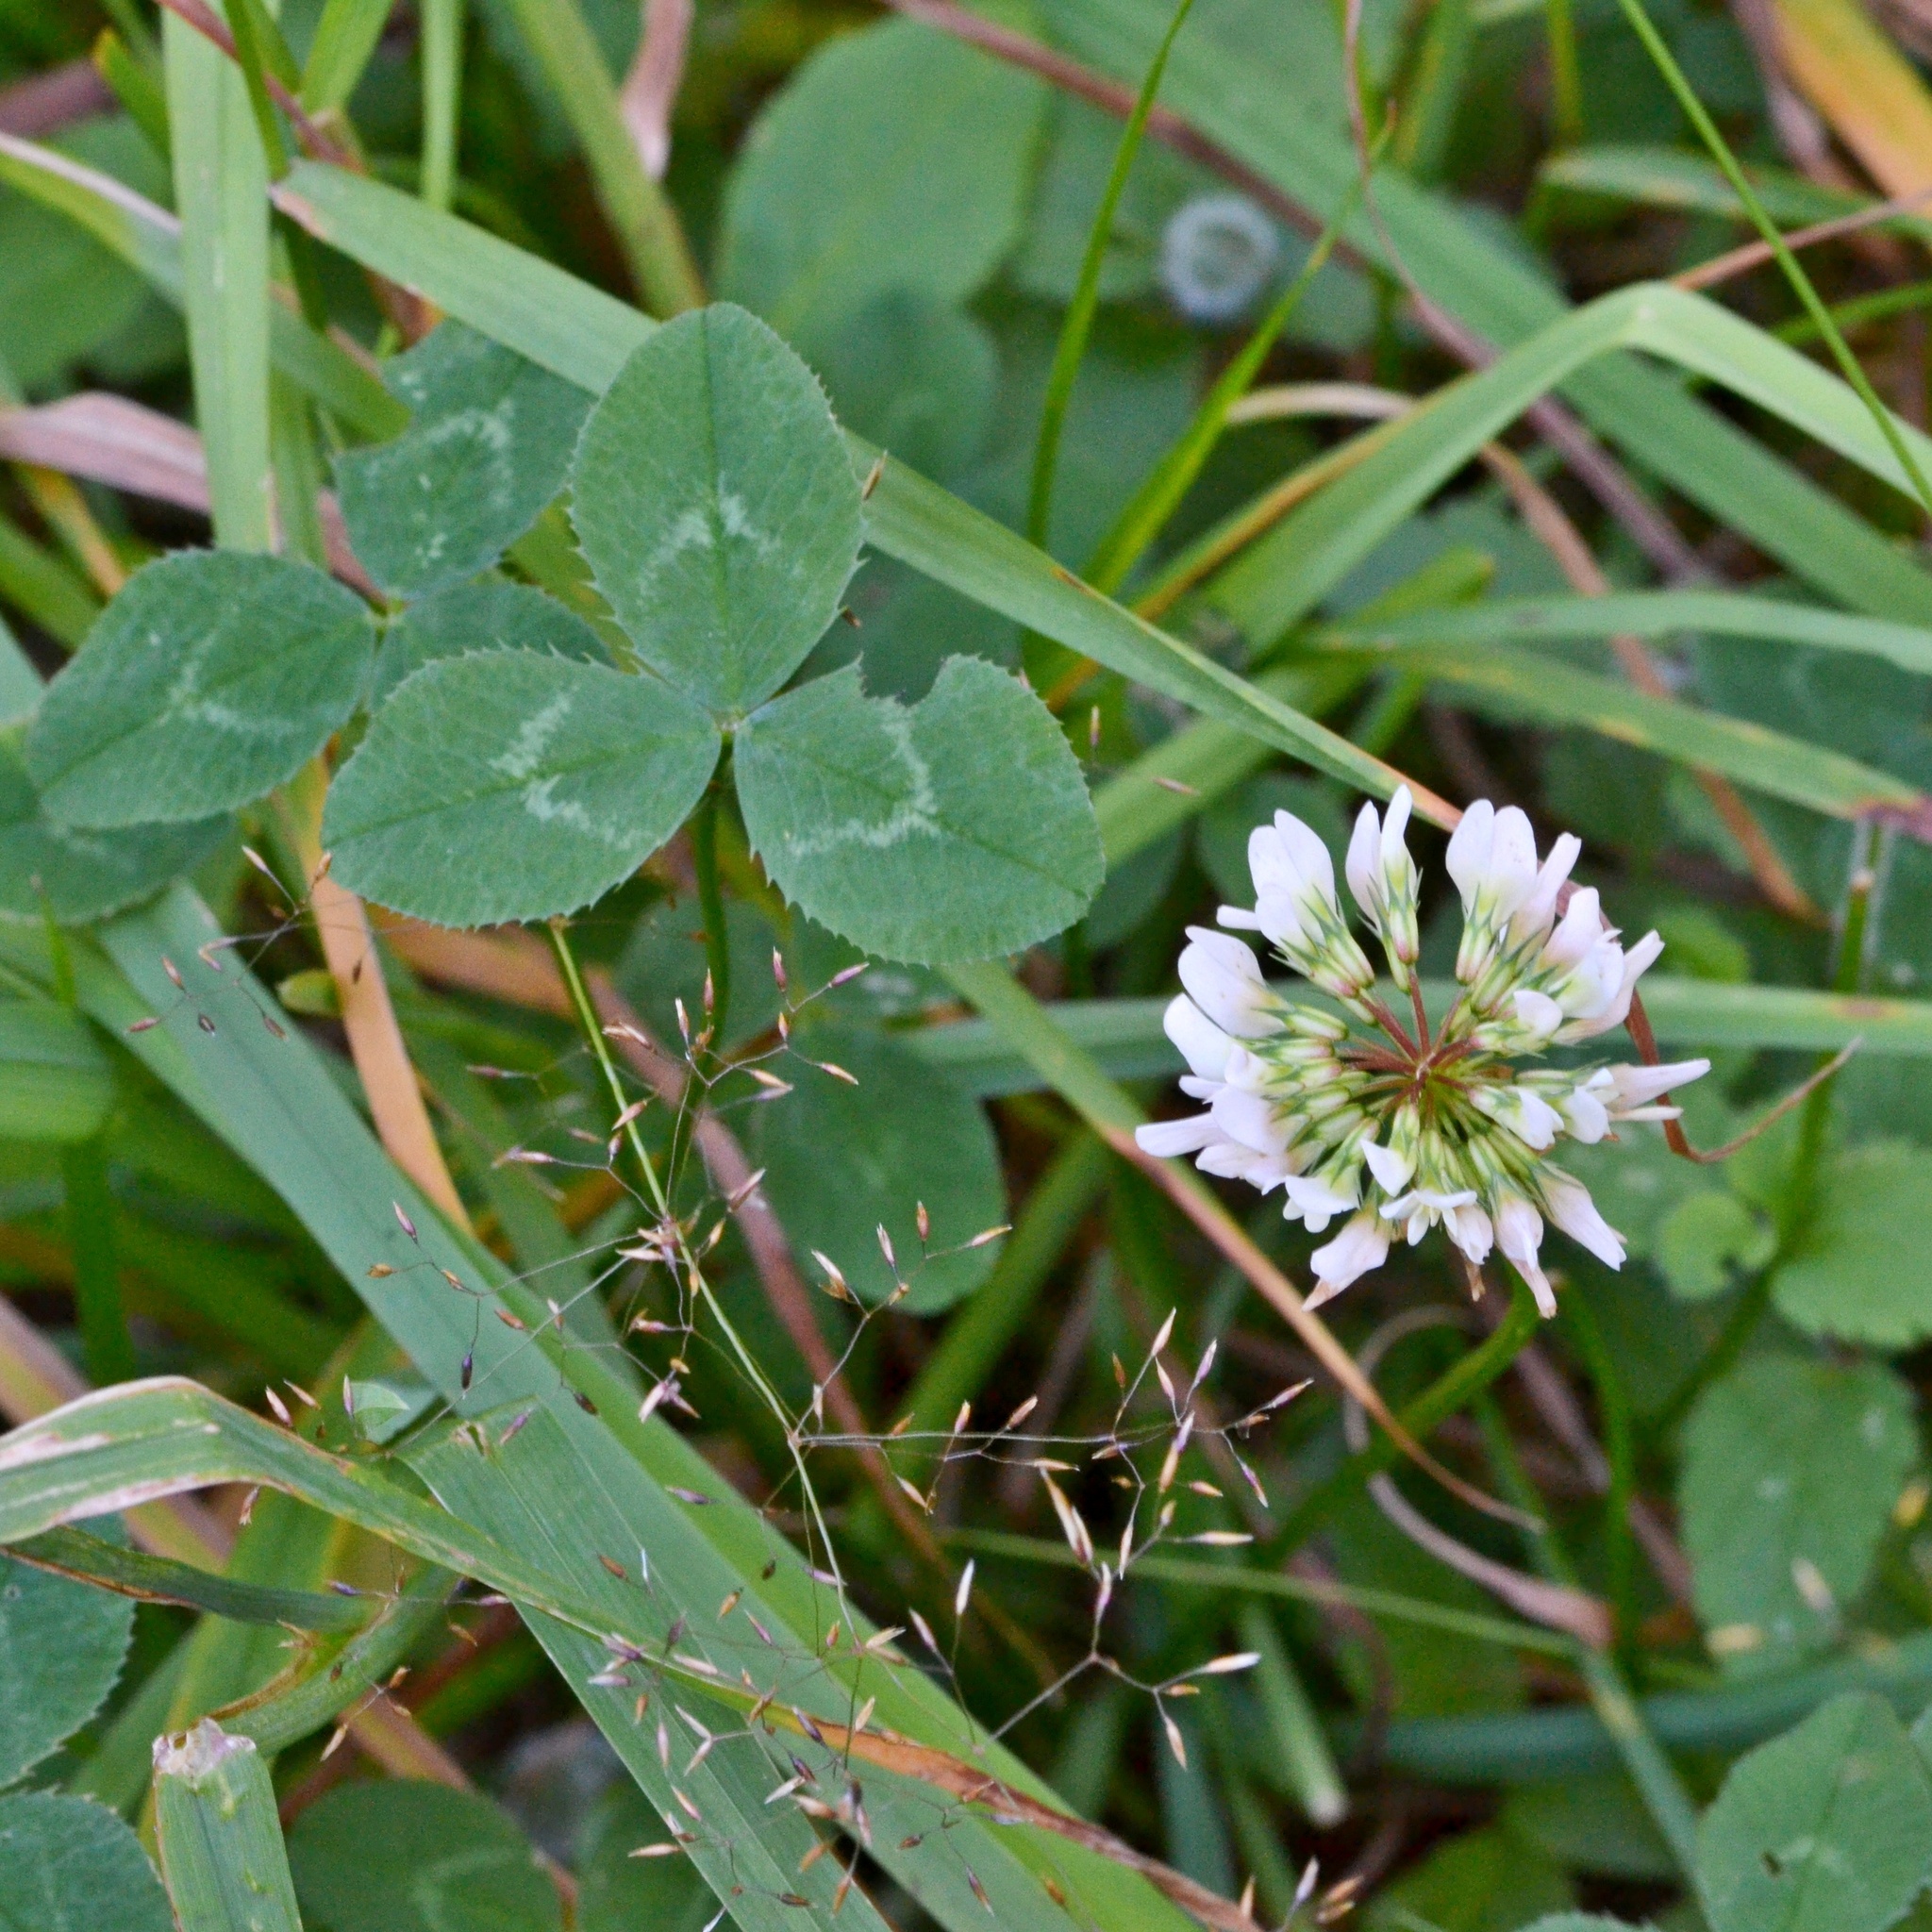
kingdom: Plantae
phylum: Tracheophyta
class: Magnoliopsida
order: Fabales
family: Fabaceae
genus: Trifolium
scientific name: Trifolium repens
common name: White clover
